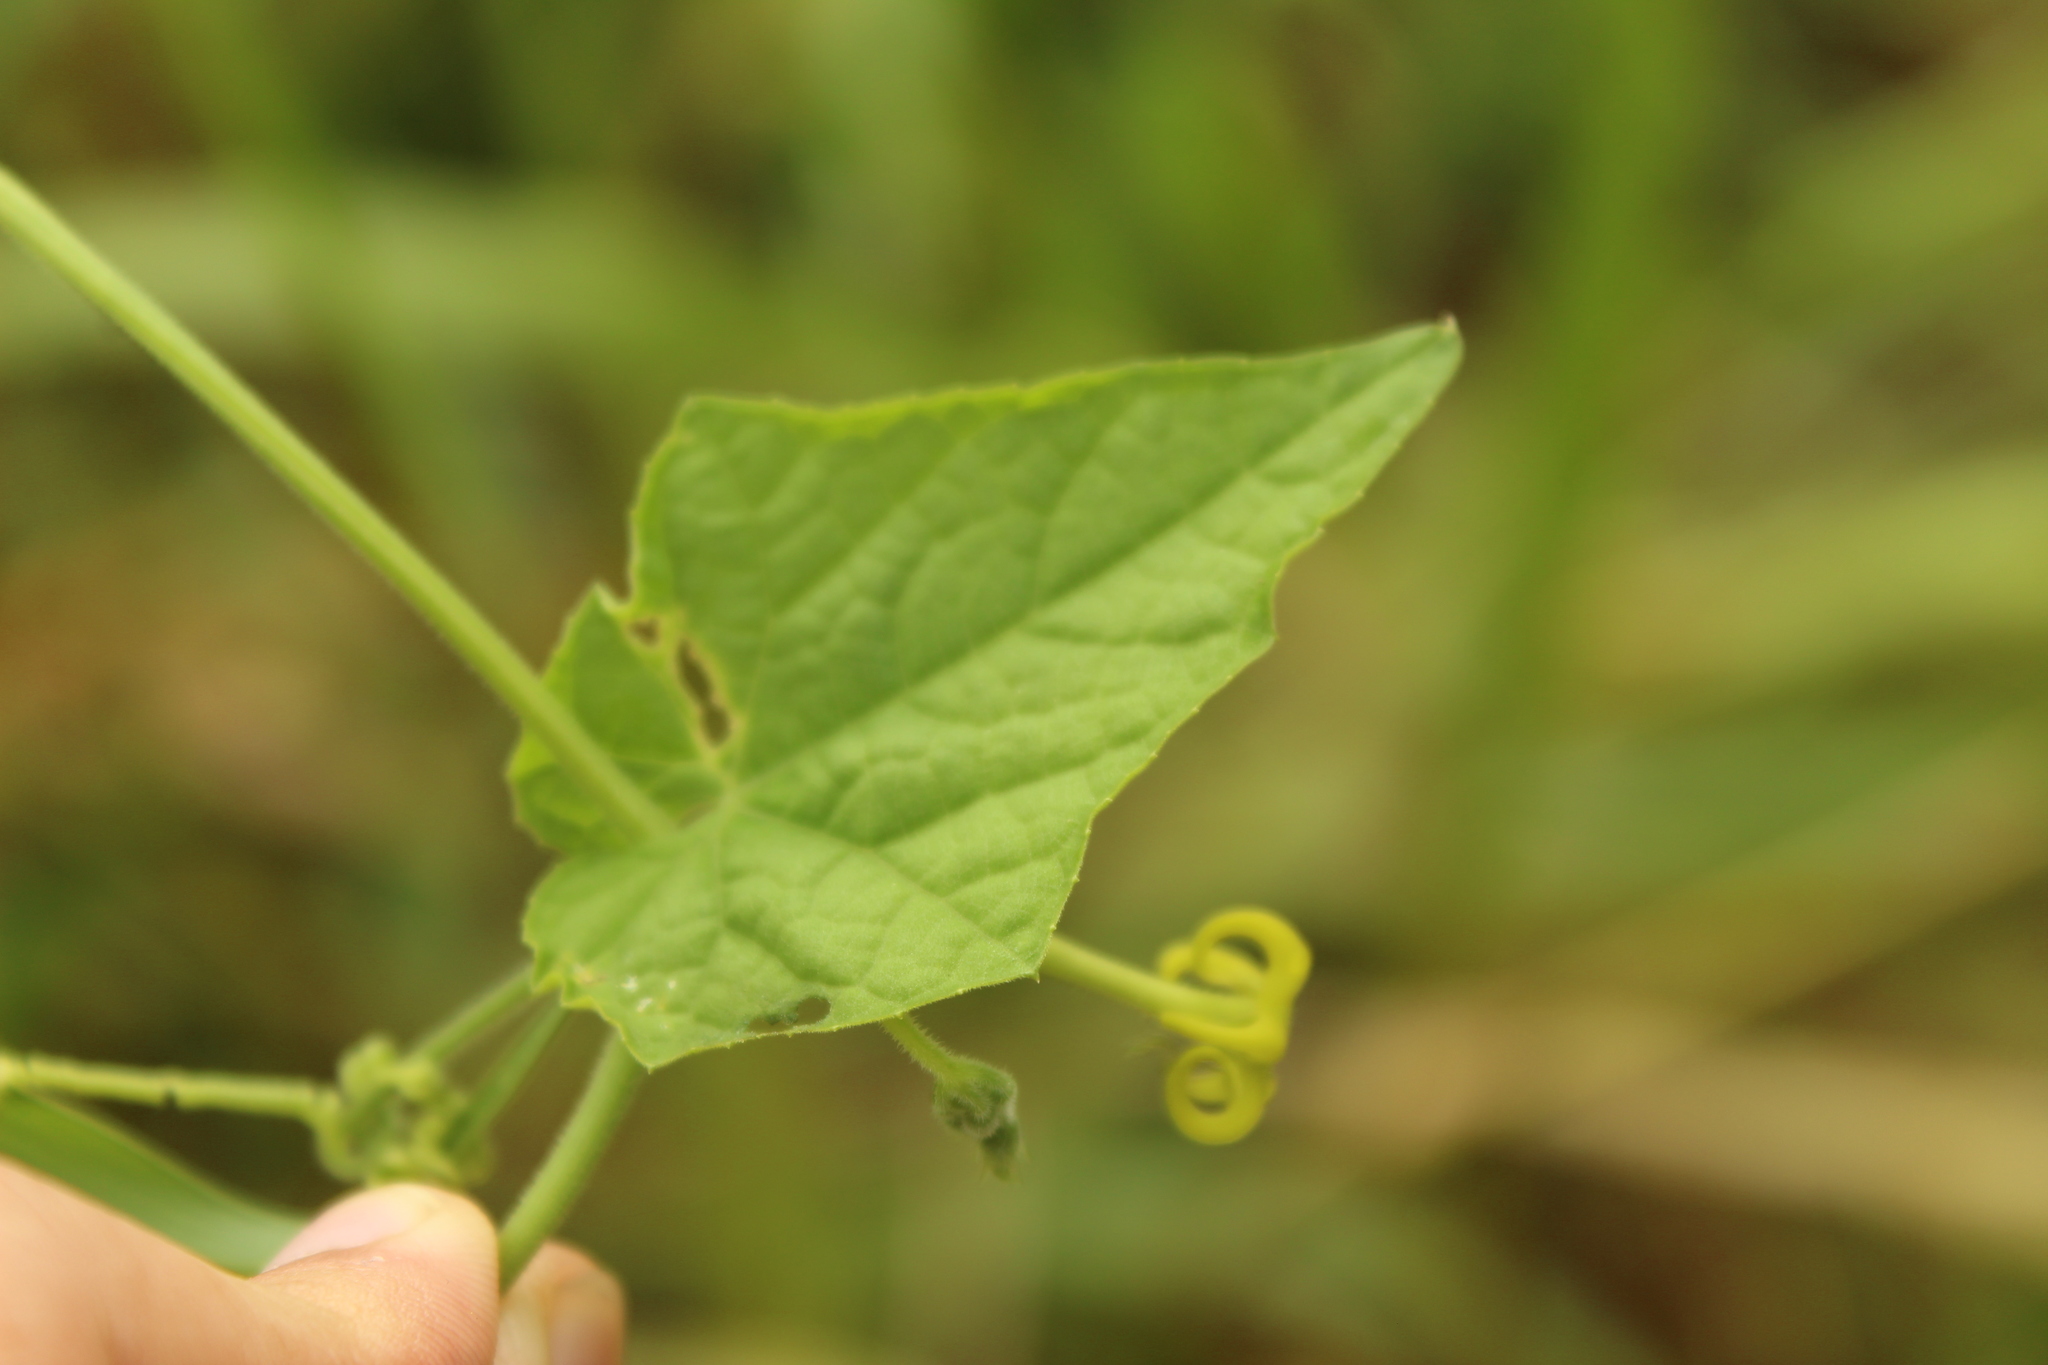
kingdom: Plantae
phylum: Tracheophyta
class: Magnoliopsida
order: Cucurbitales
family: Cucurbitaceae
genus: Cyclanthera
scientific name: Cyclanthera carthagenensis
